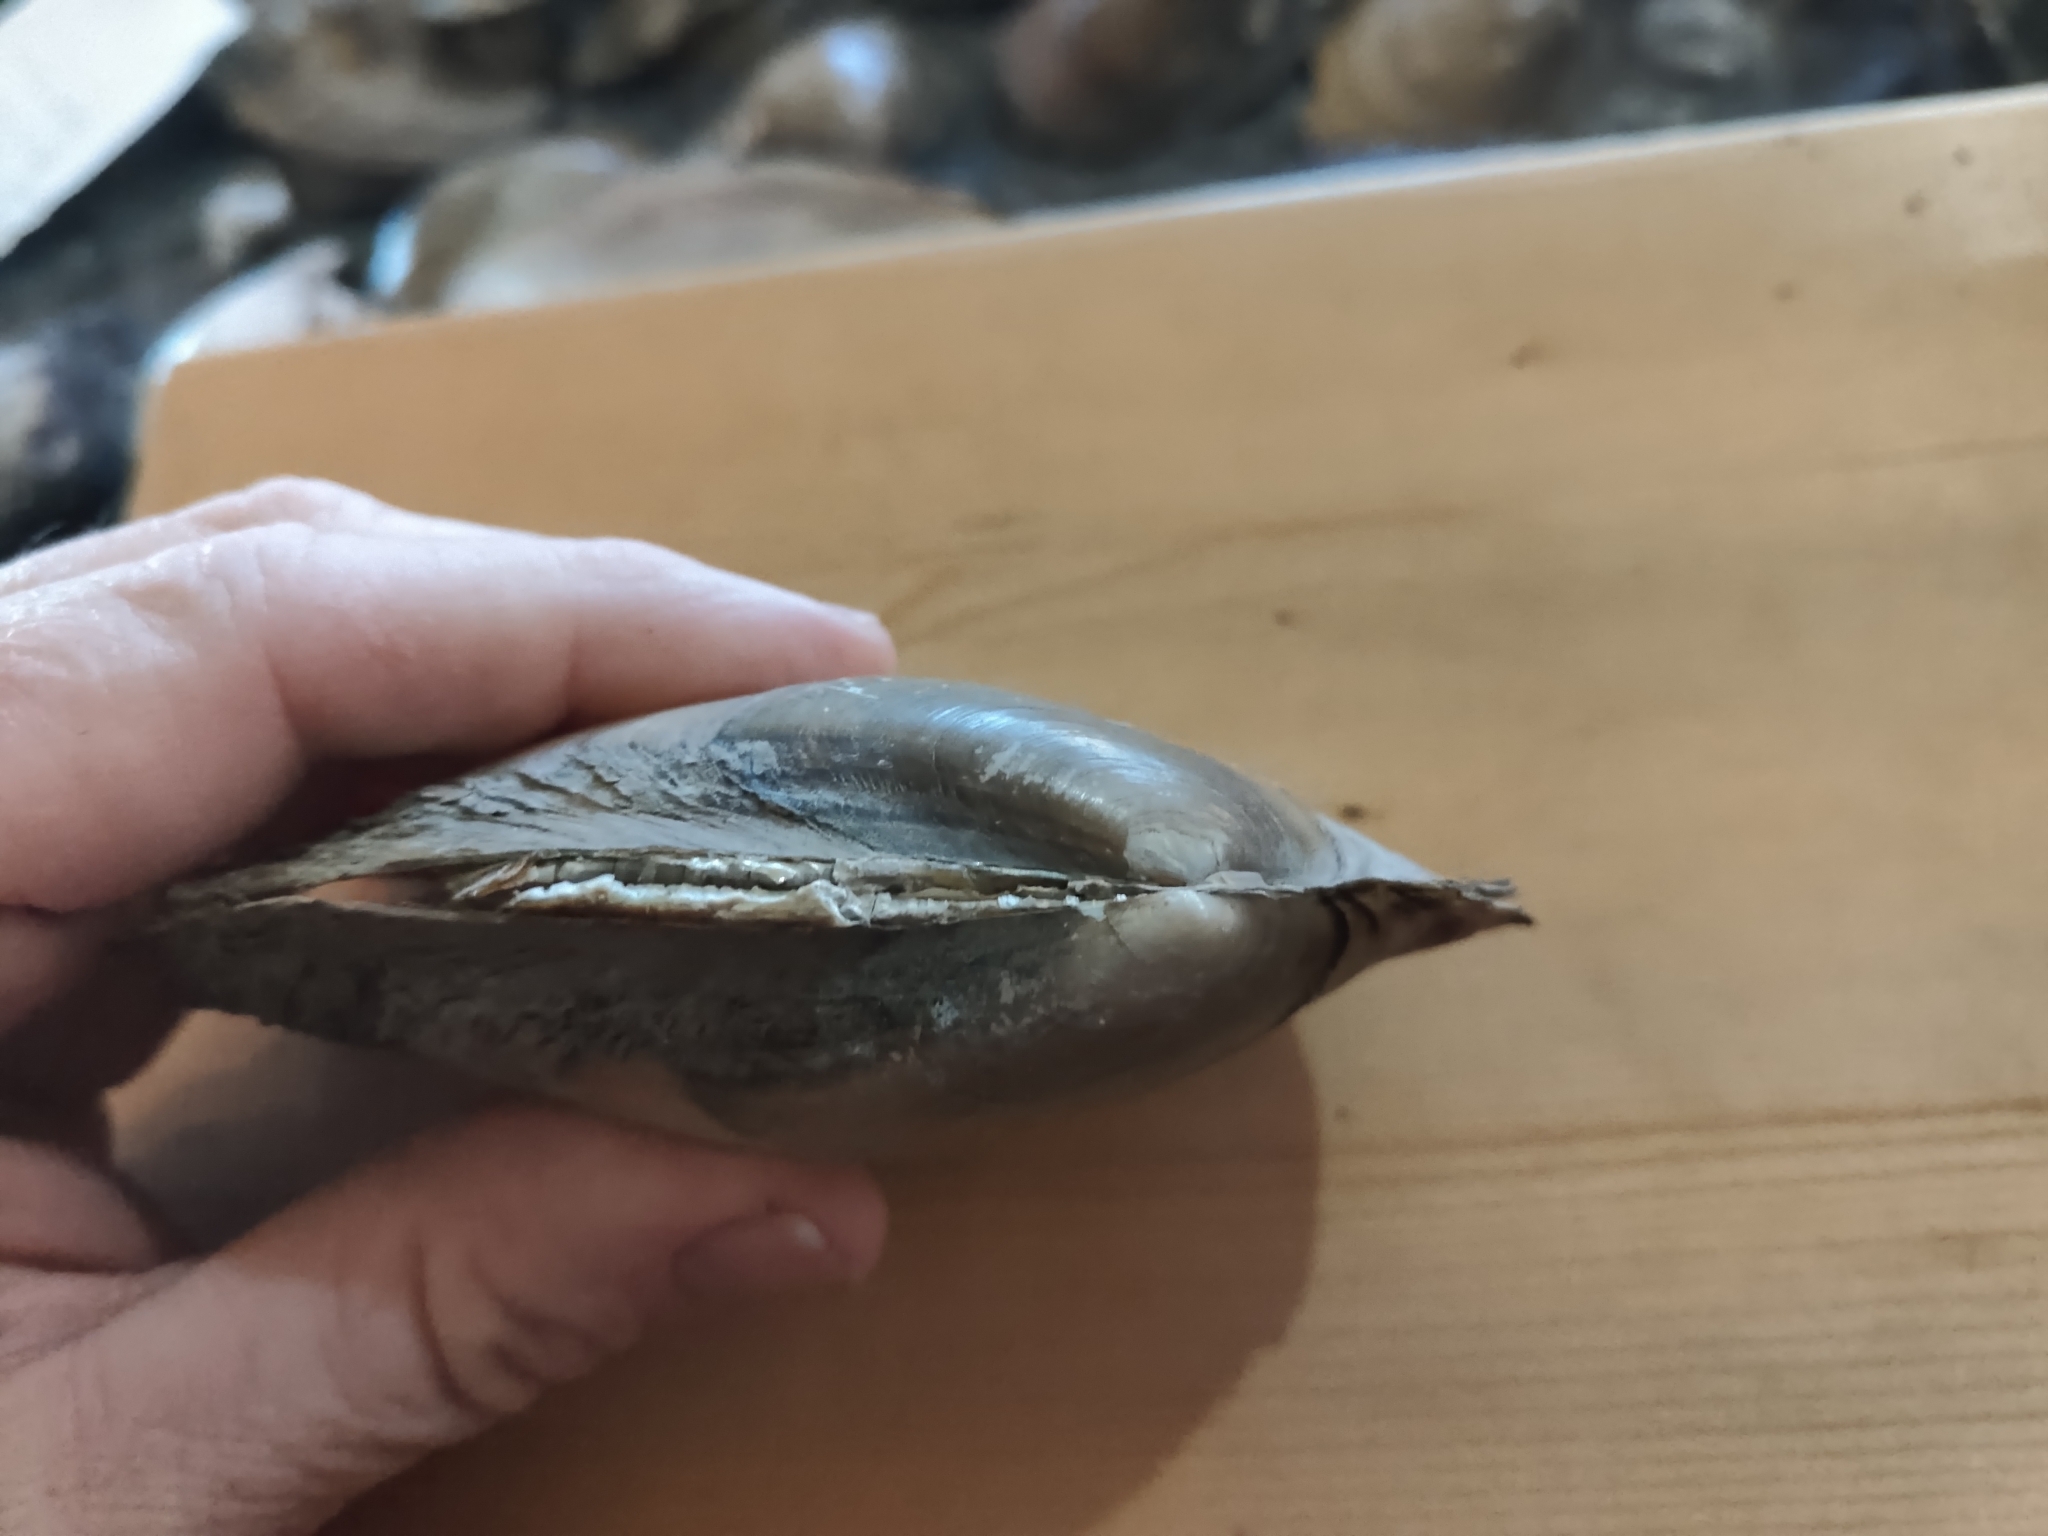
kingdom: Animalia
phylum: Mollusca
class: Bivalvia
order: Unionida
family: Unionidae
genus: Potamilus
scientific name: Potamilus fragilis
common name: Fragile papershell
